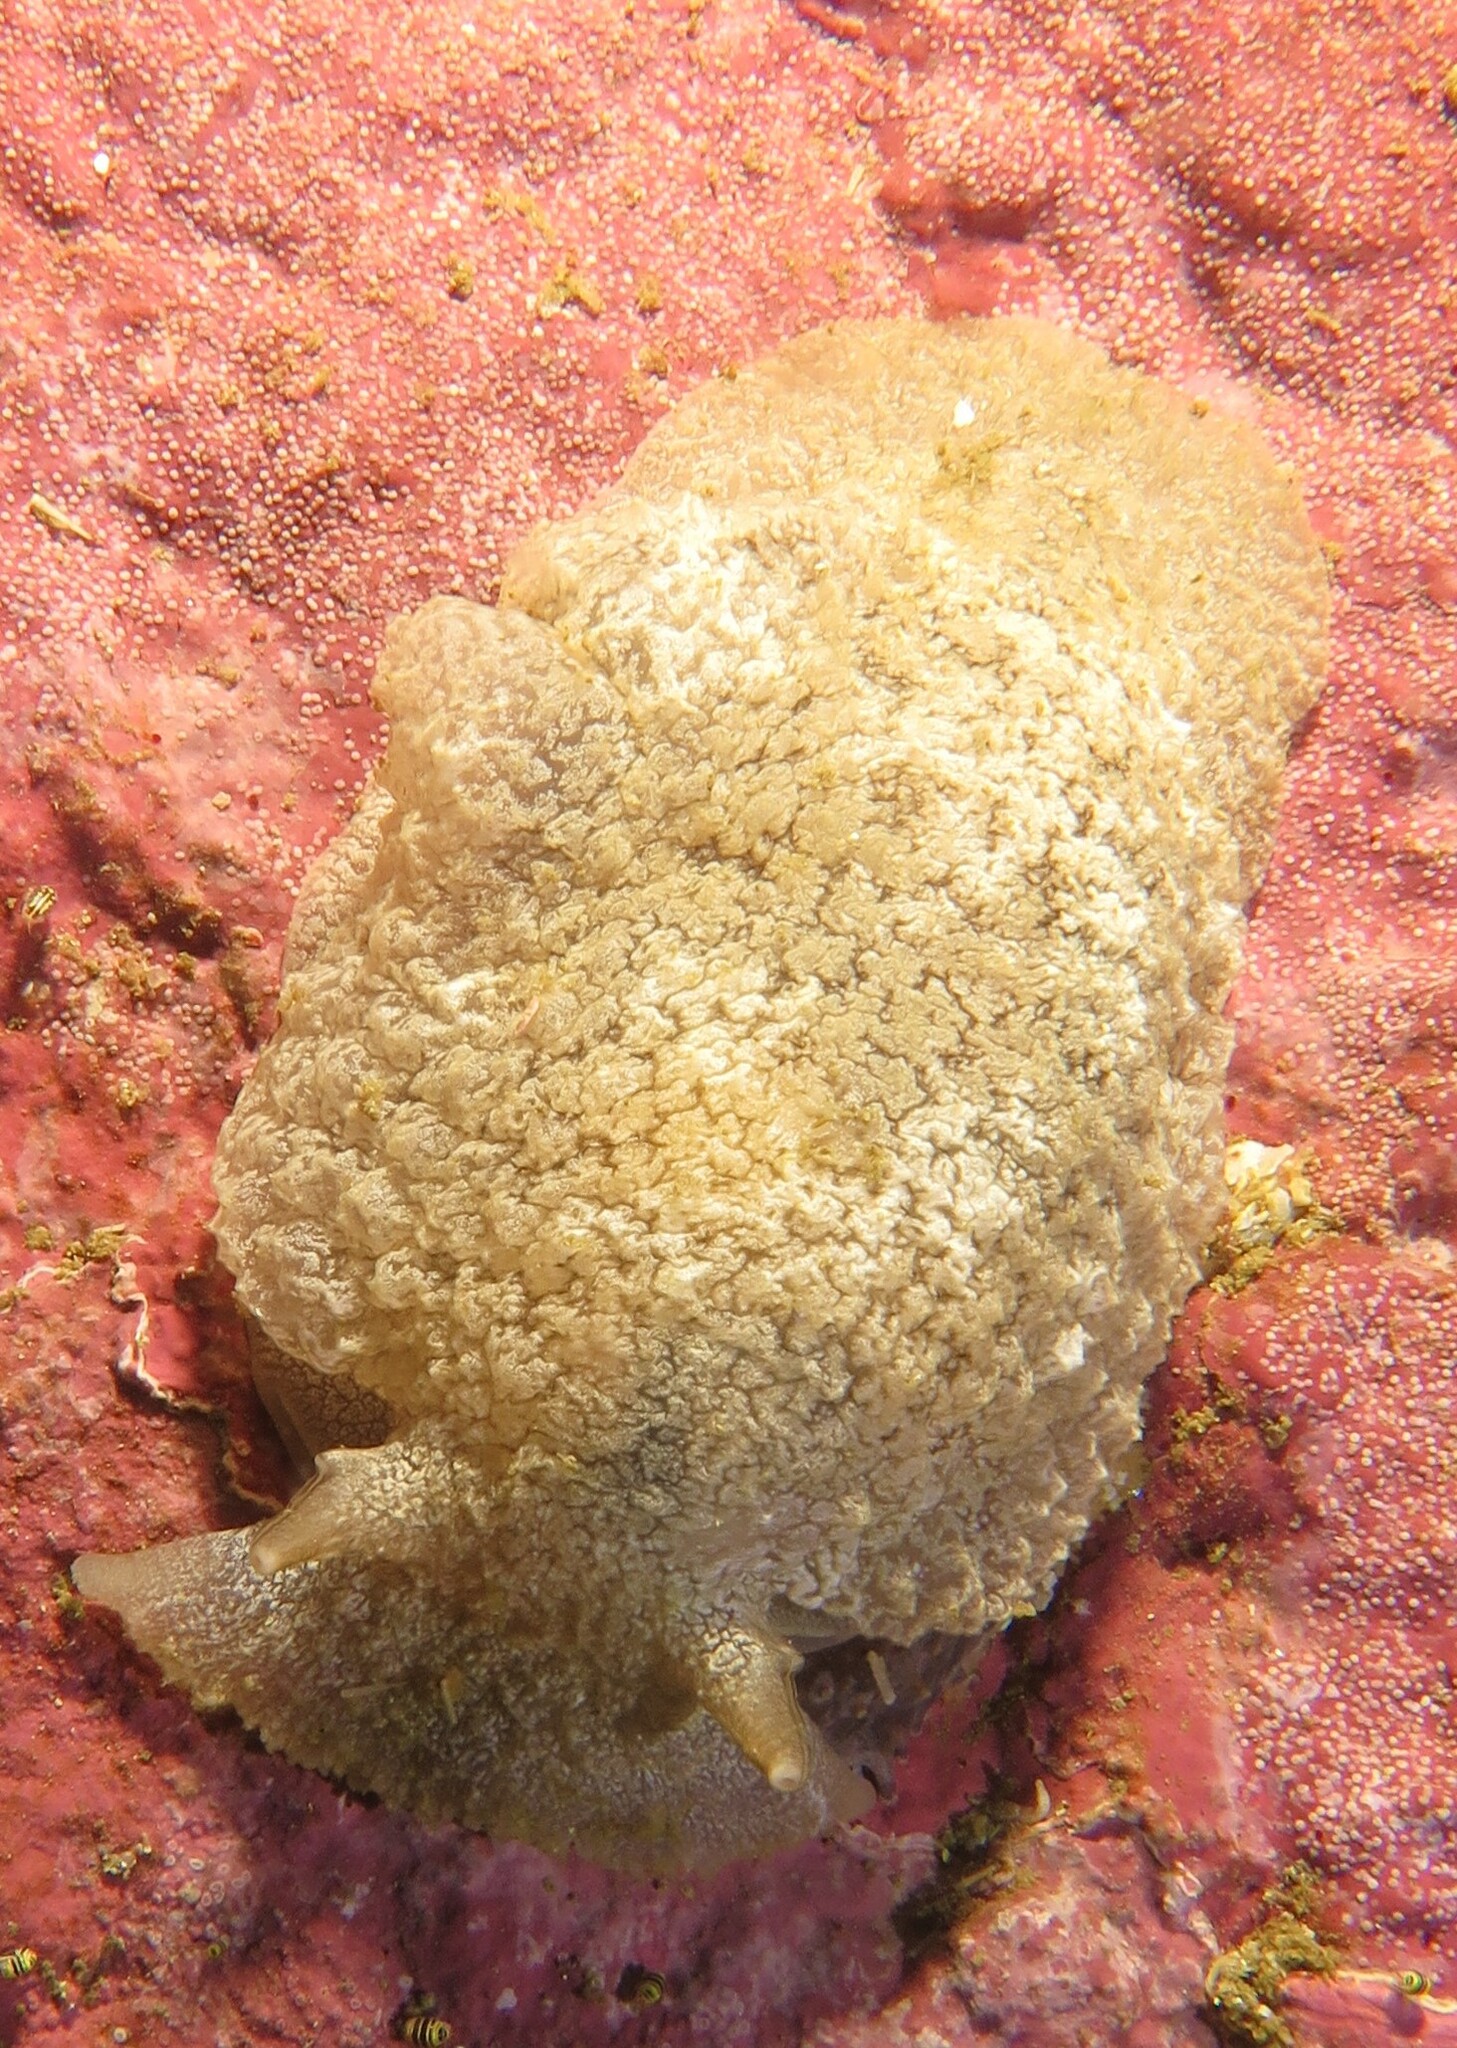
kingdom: Animalia
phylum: Mollusca
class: Gastropoda
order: Pleurobranchida
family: Pleurobranchaeidae
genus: Pleurobranchaea
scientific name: Pleurobranchaea bubala
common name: Warty pleurobranch
